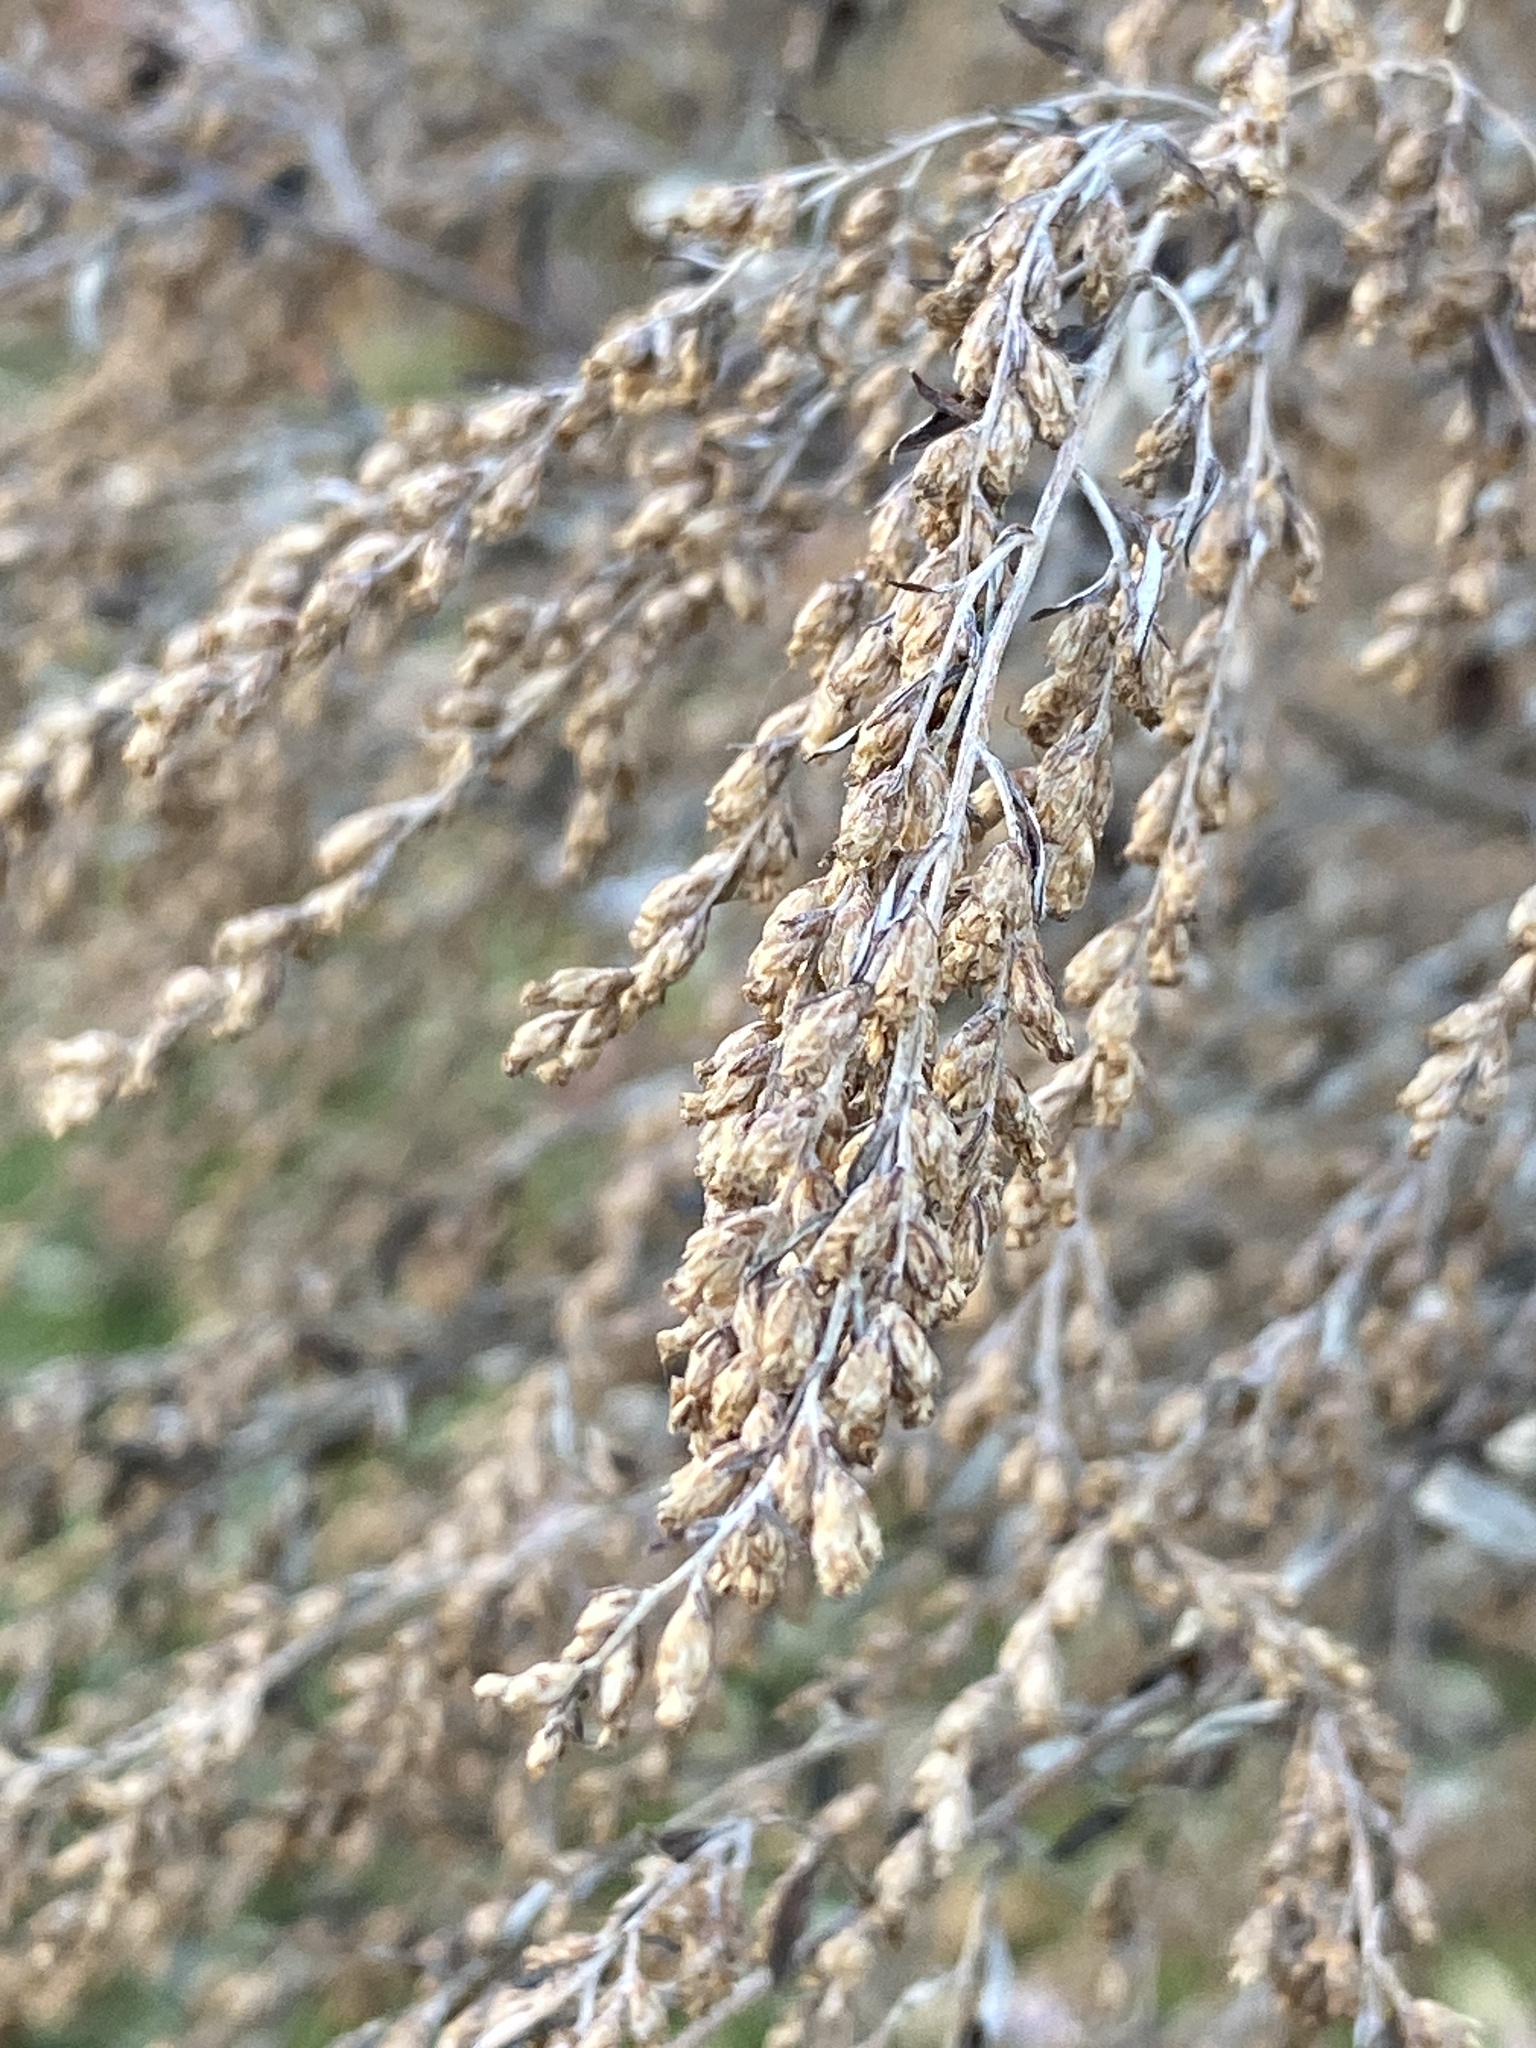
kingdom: Plantae
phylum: Tracheophyta
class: Magnoliopsida
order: Asterales
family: Asteraceae
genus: Artemisia
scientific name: Artemisia vulgaris
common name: Mugwort
